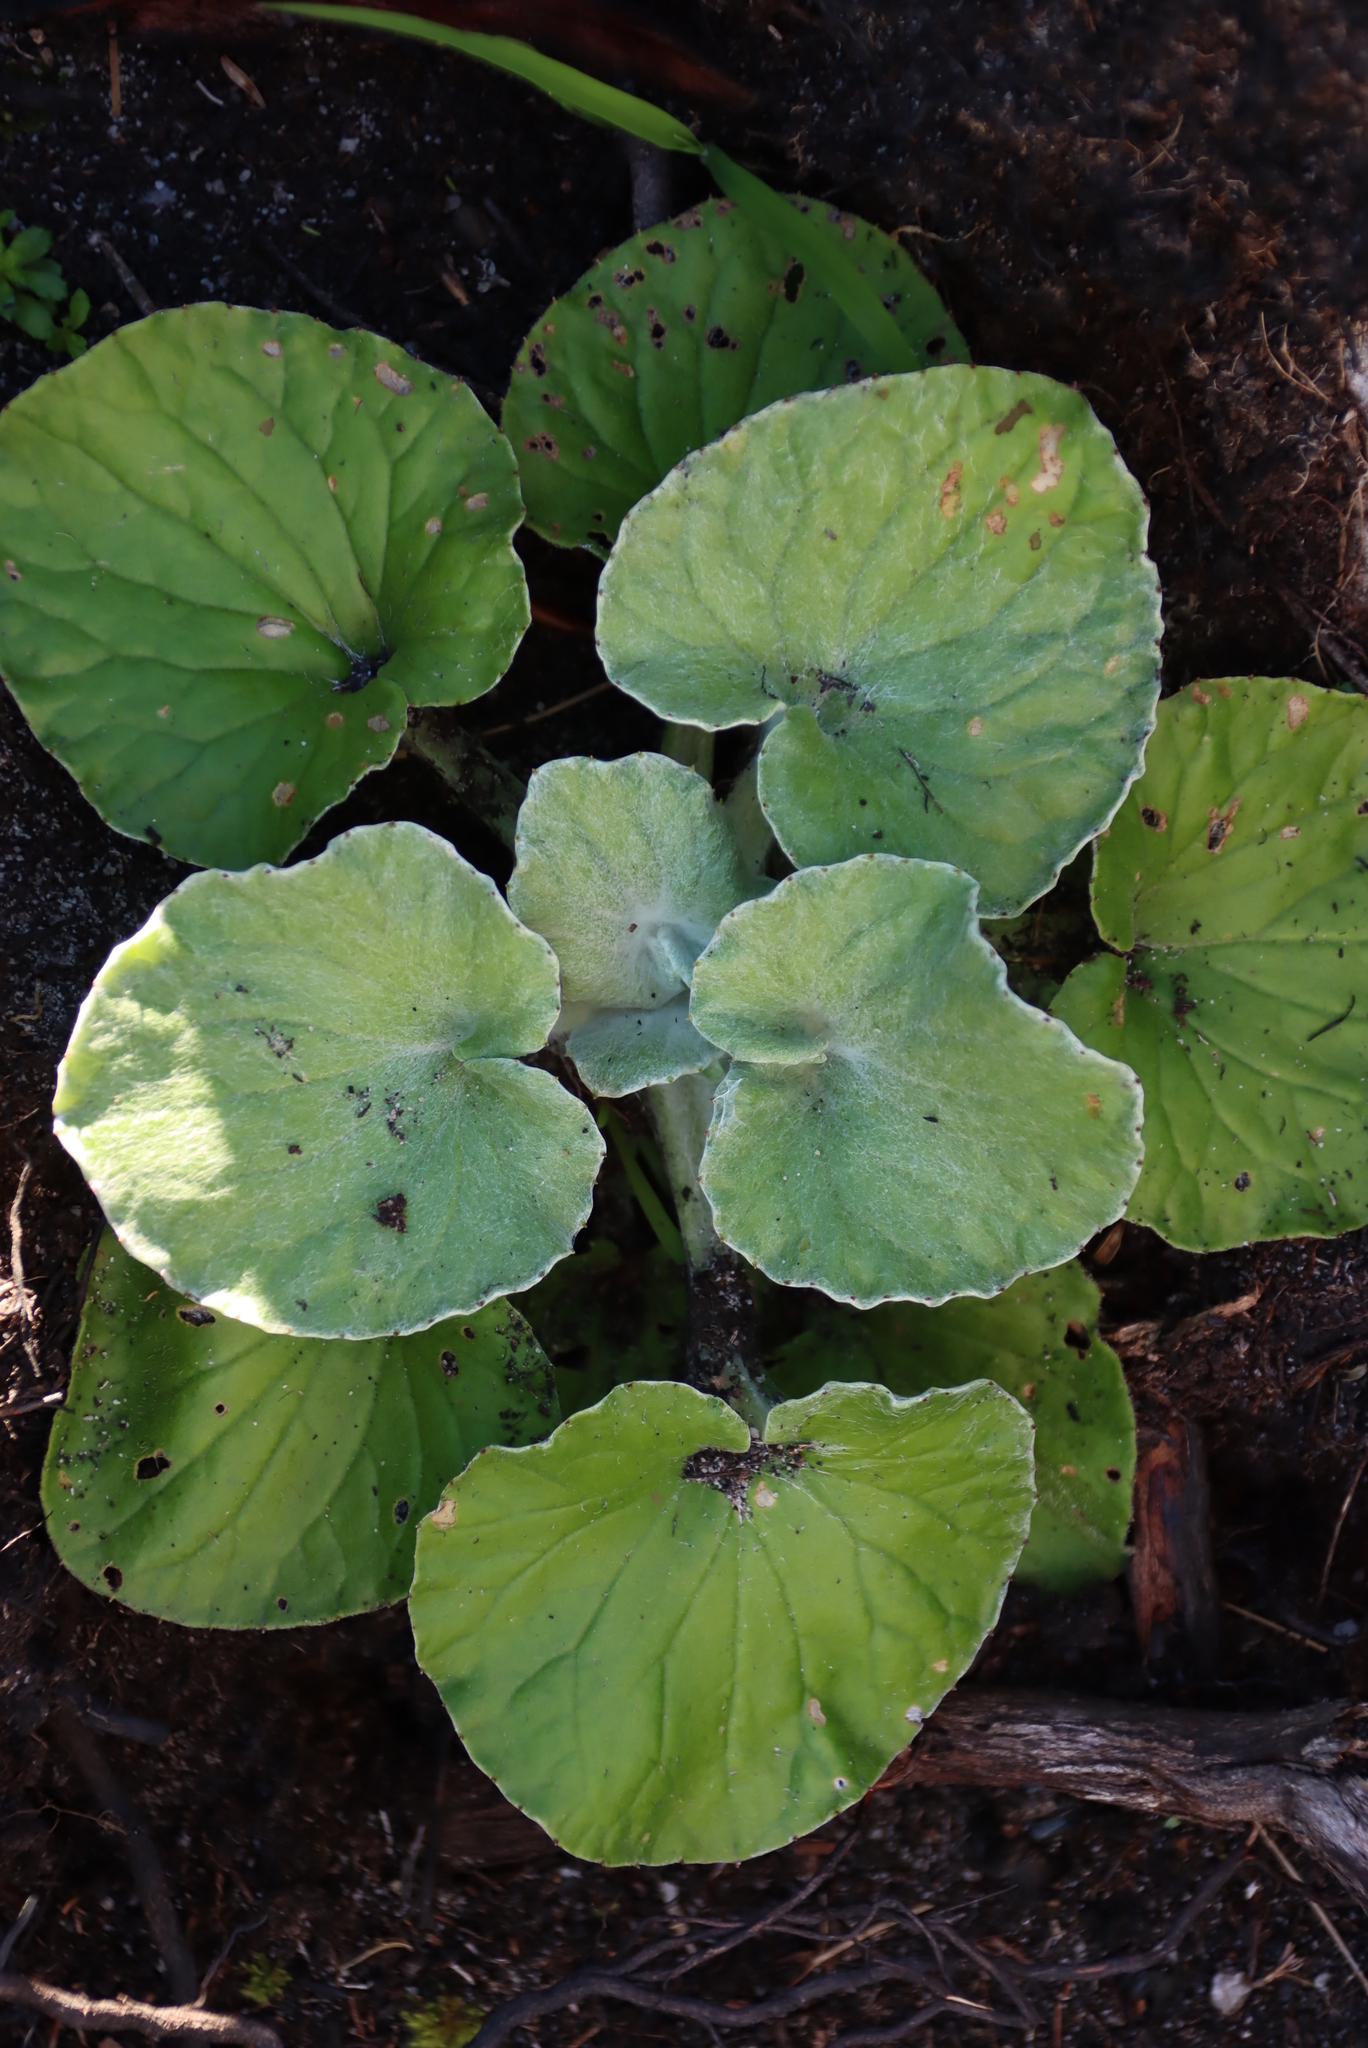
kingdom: Plantae
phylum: Tracheophyta
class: Magnoliopsida
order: Asterales
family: Asteraceae
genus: Senecio
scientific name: Senecio verbascifolius
